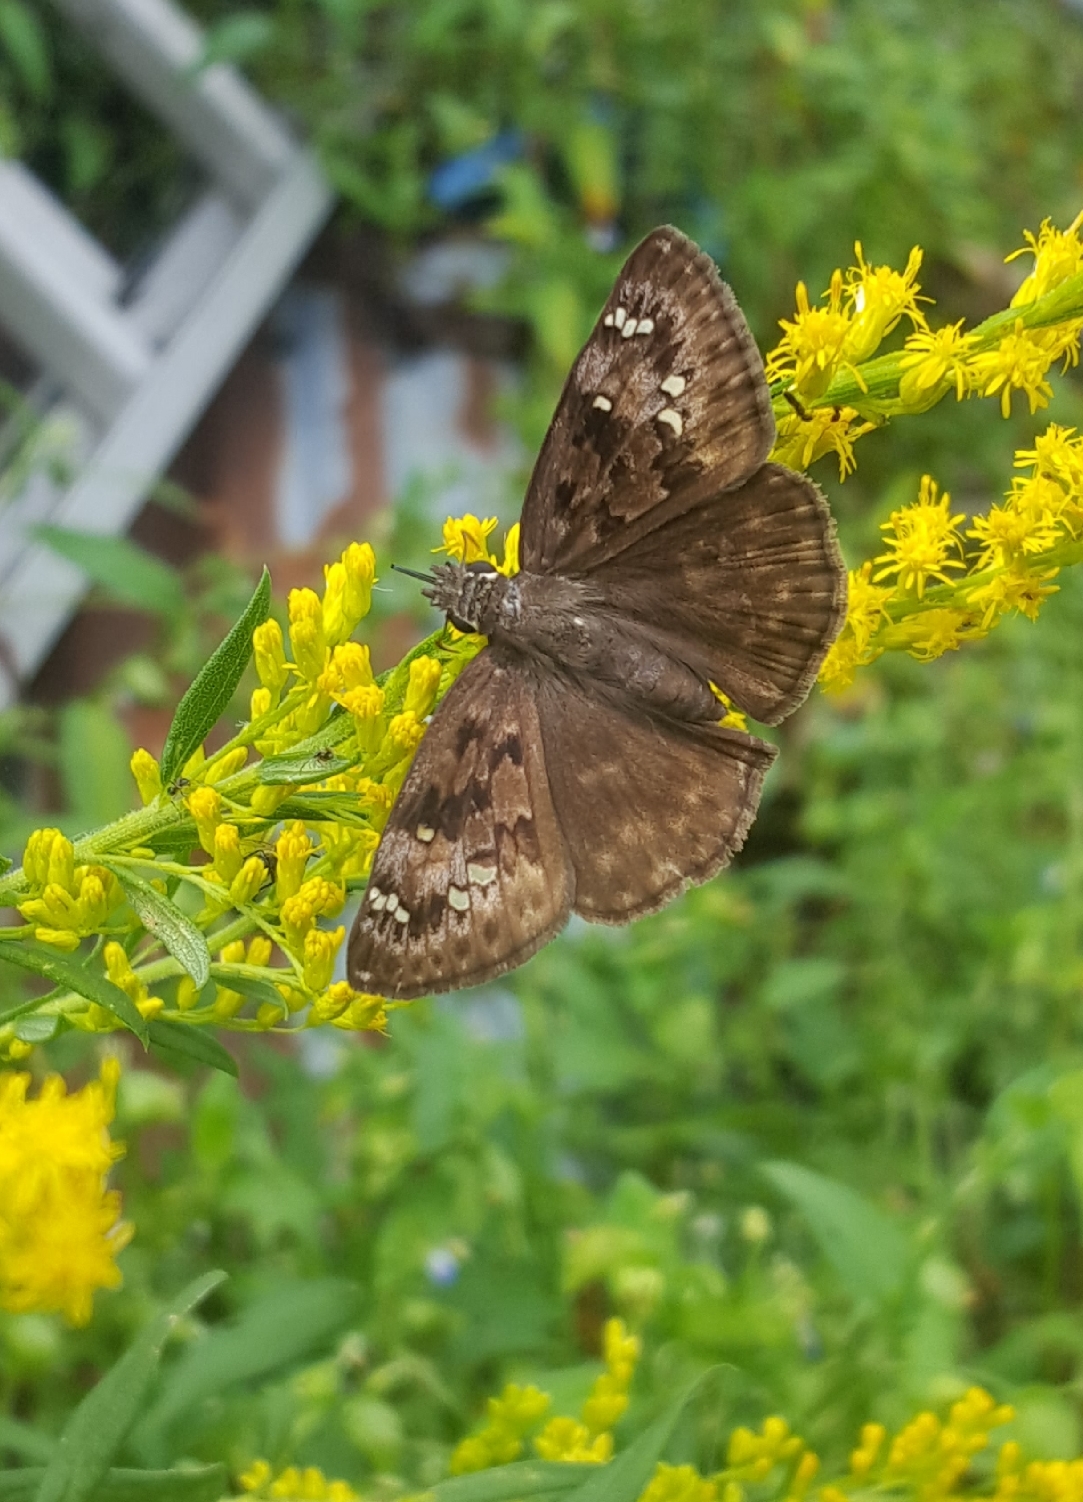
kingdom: Animalia
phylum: Arthropoda
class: Insecta
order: Lepidoptera
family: Hesperiidae
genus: Erynnis
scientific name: Erynnis horatius
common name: Horace's duskywing
